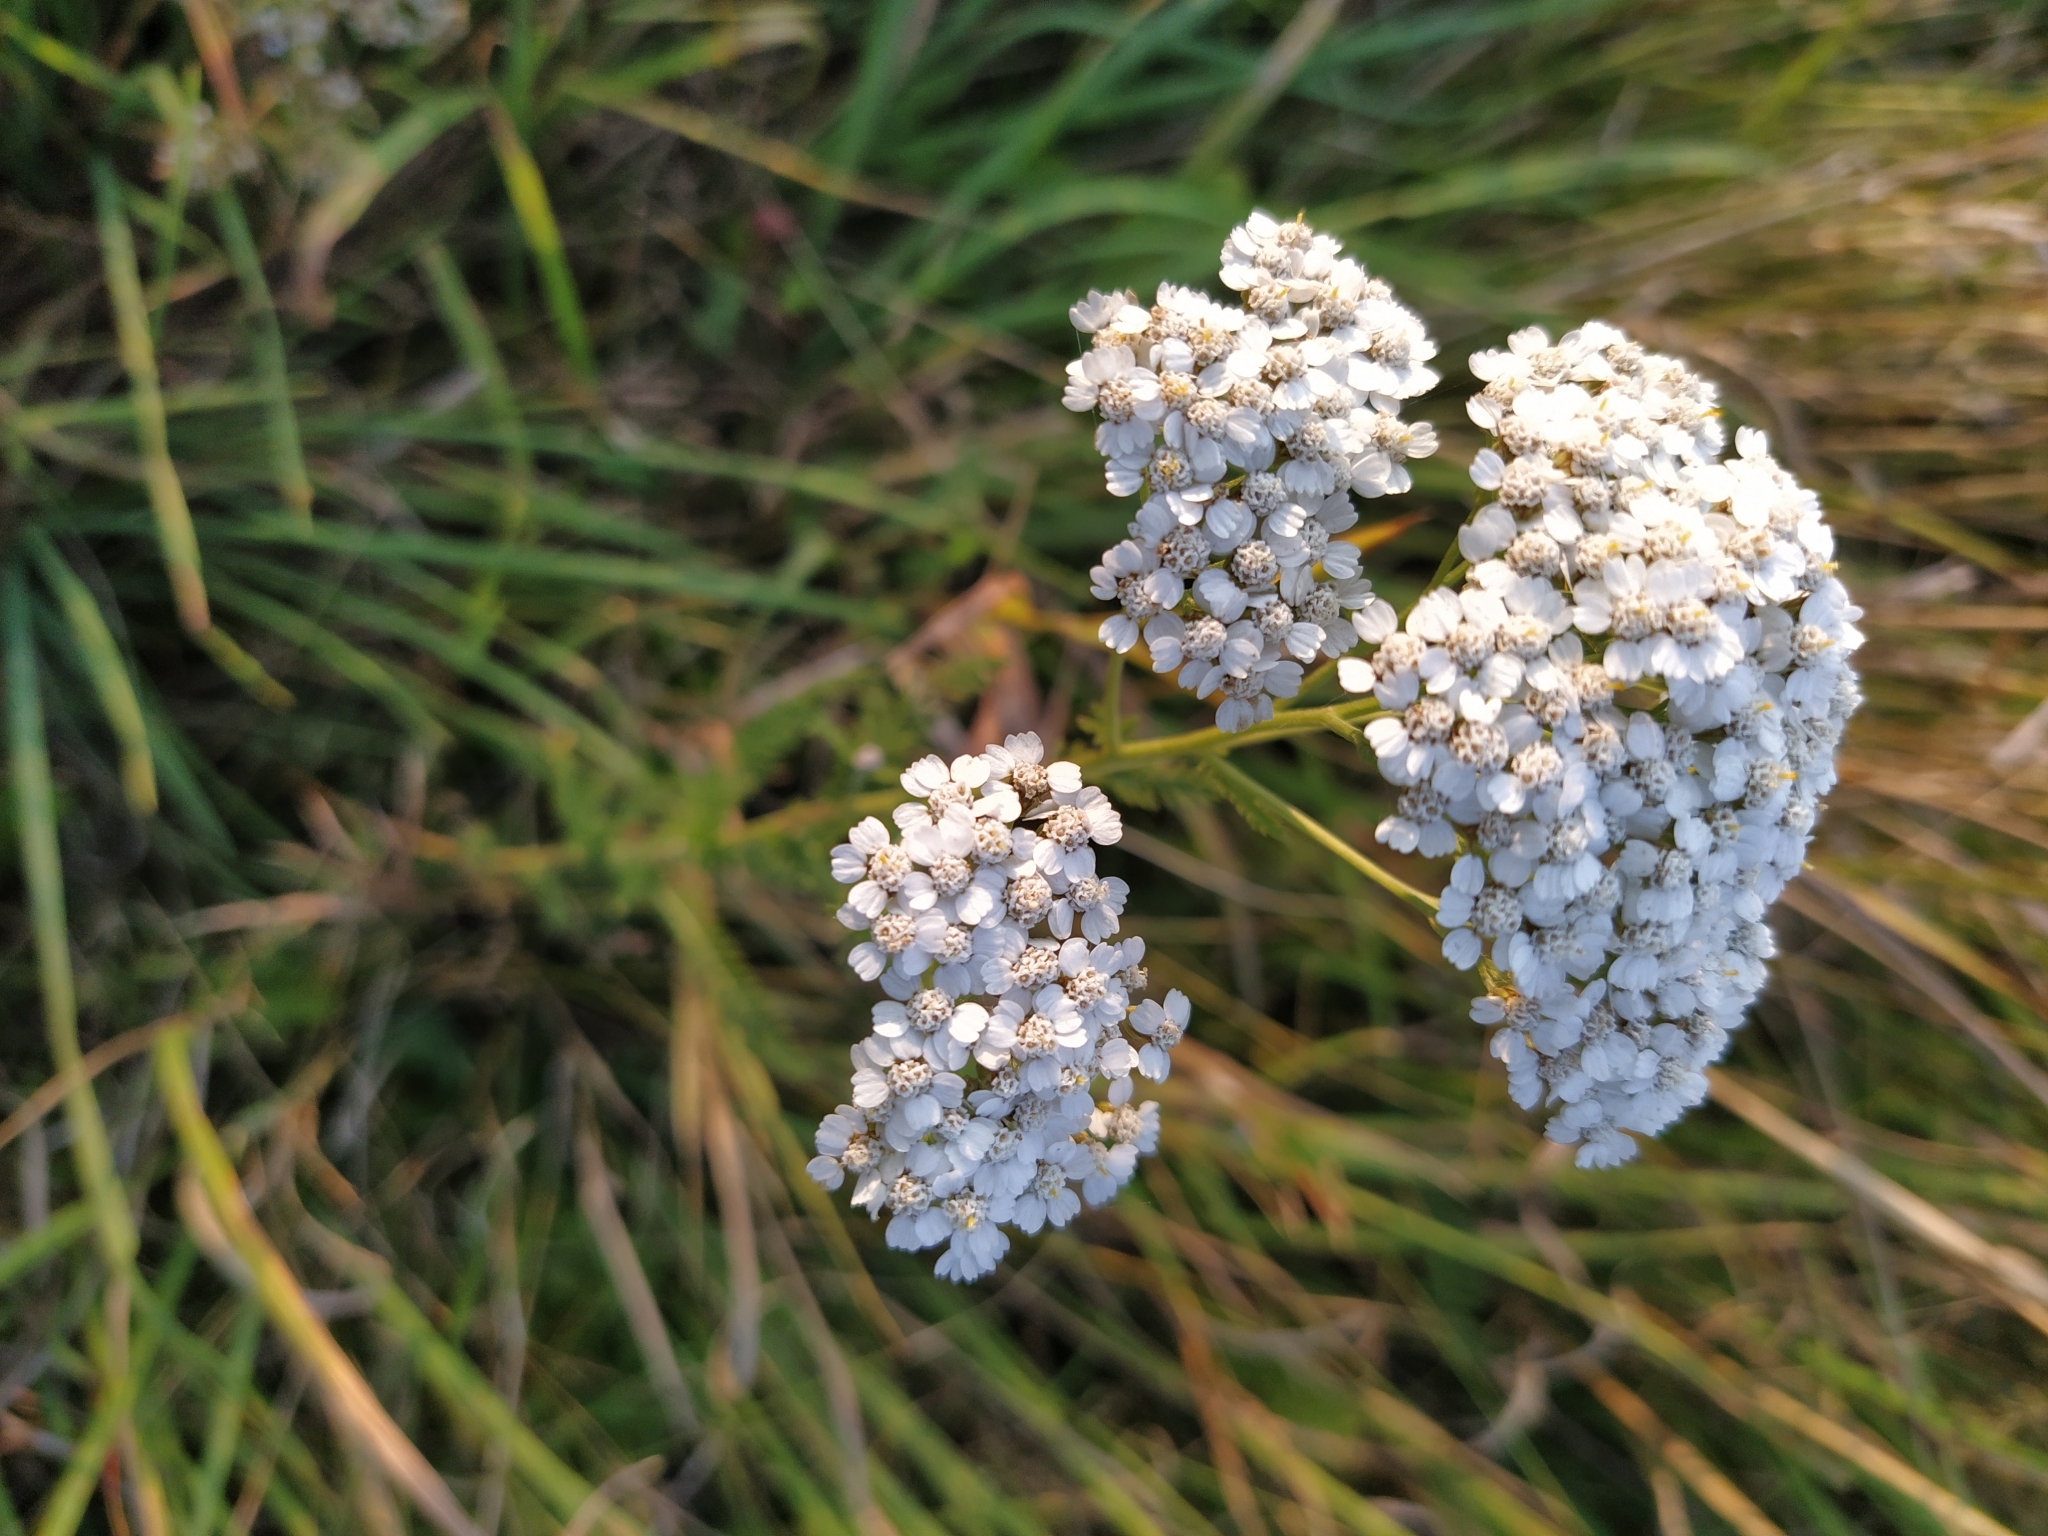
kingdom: Plantae
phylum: Tracheophyta
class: Magnoliopsida
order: Asterales
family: Asteraceae
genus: Achillea
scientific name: Achillea millefolium
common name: Yarrow
